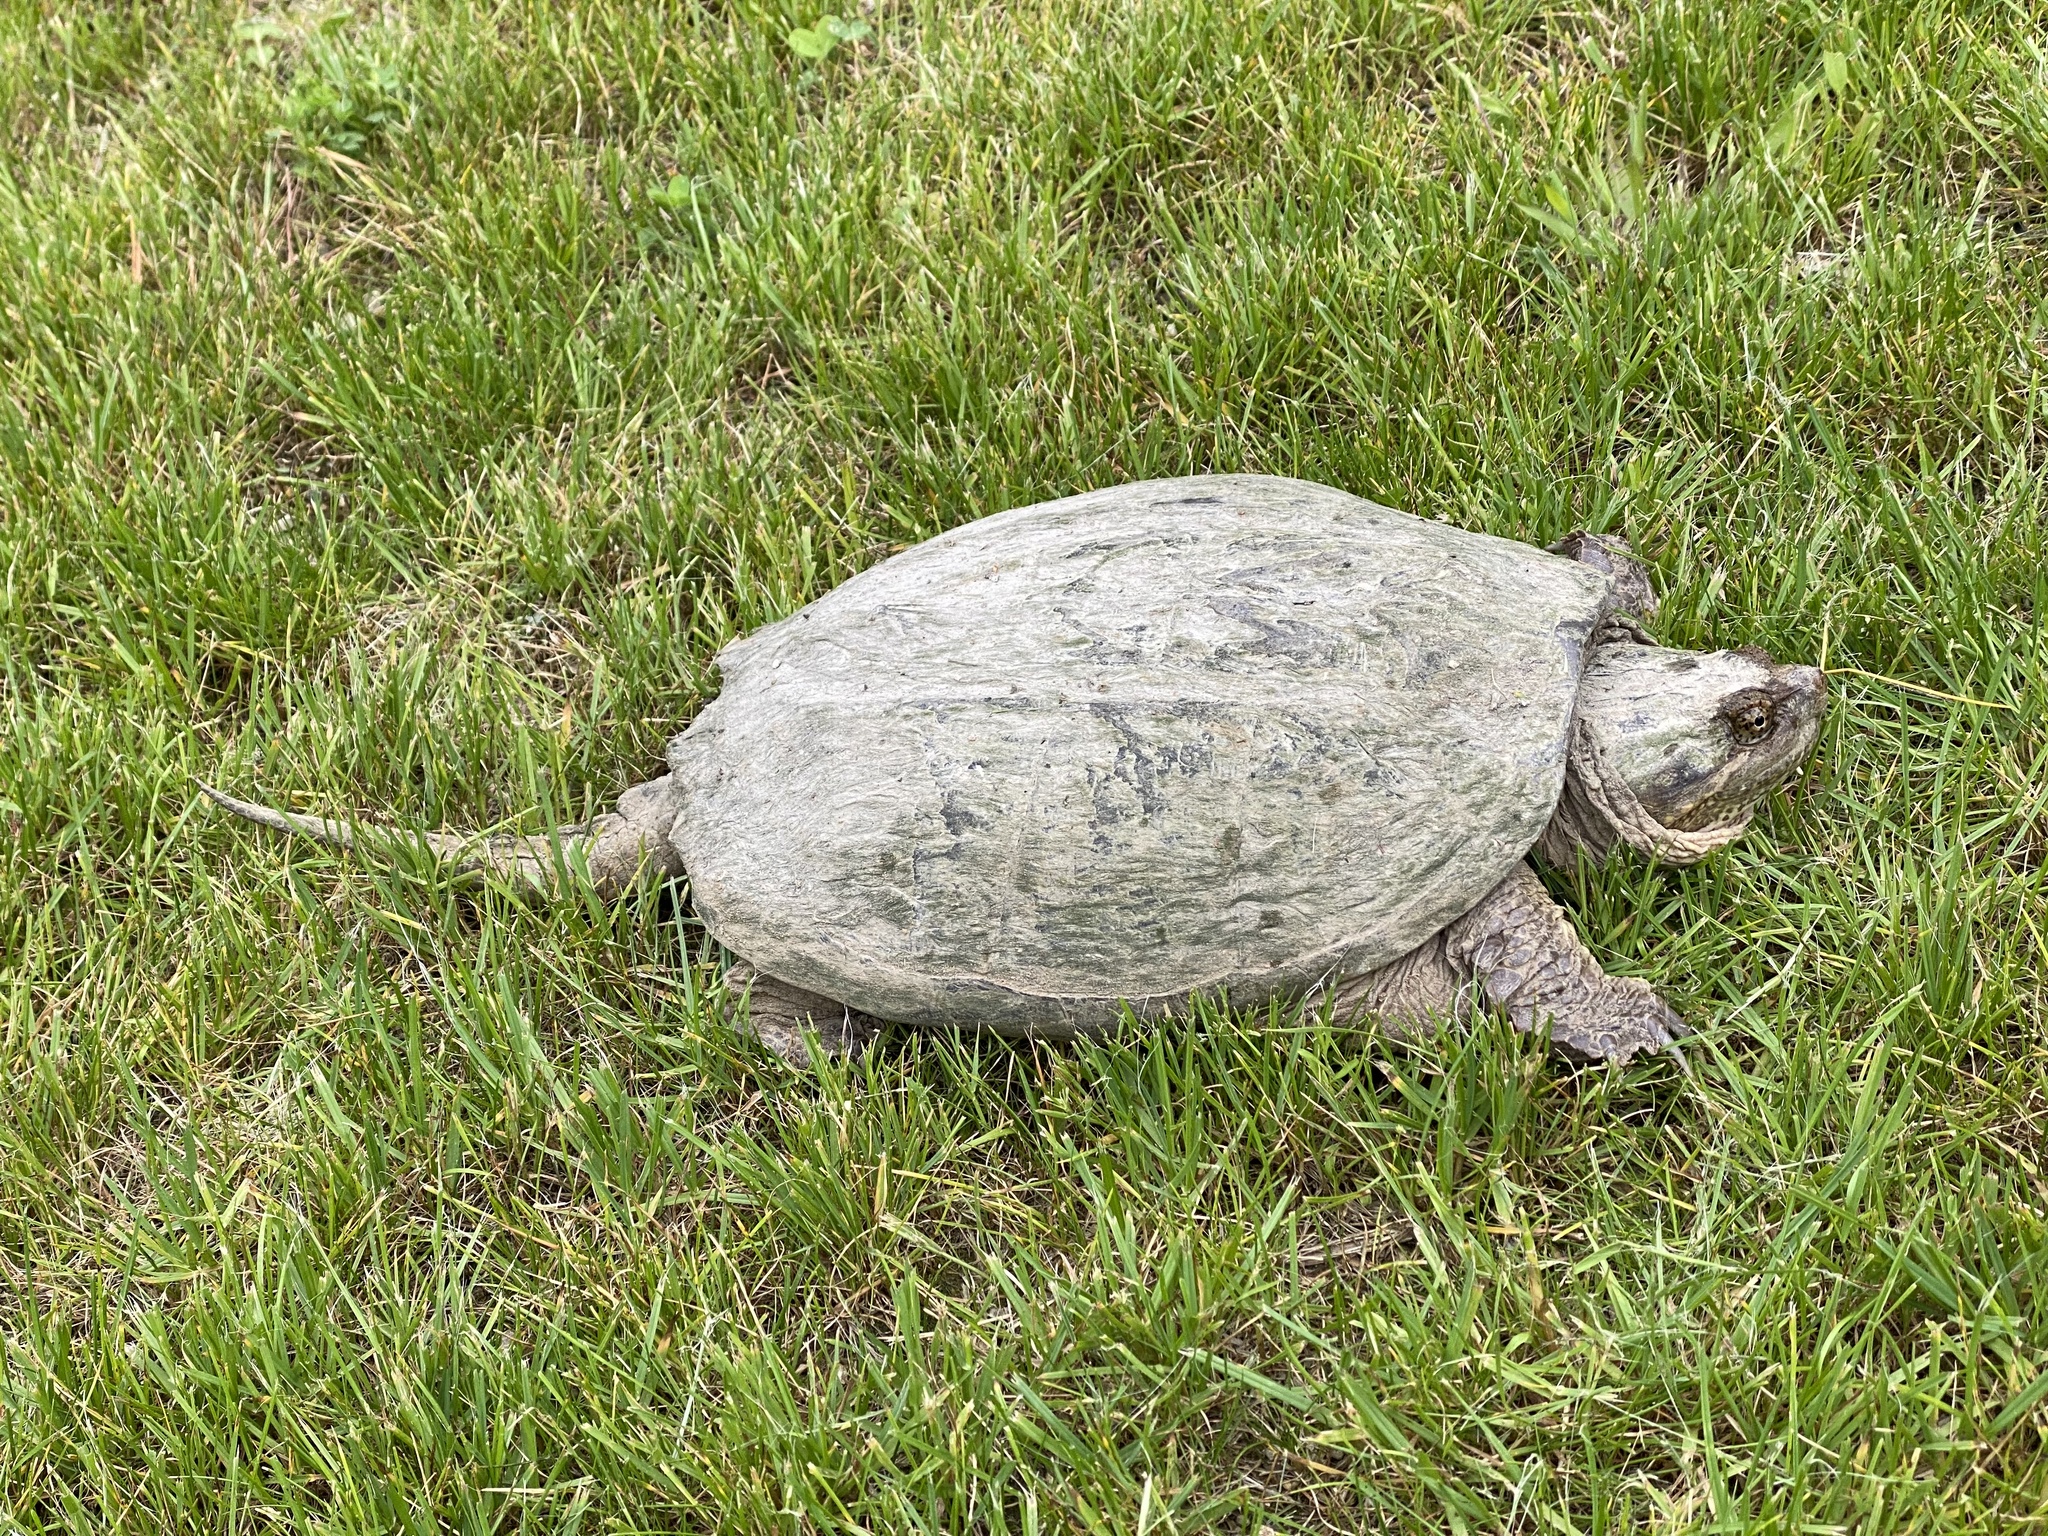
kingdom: Animalia
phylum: Chordata
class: Testudines
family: Chelydridae
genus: Chelydra
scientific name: Chelydra serpentina
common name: Common snapping turtle
